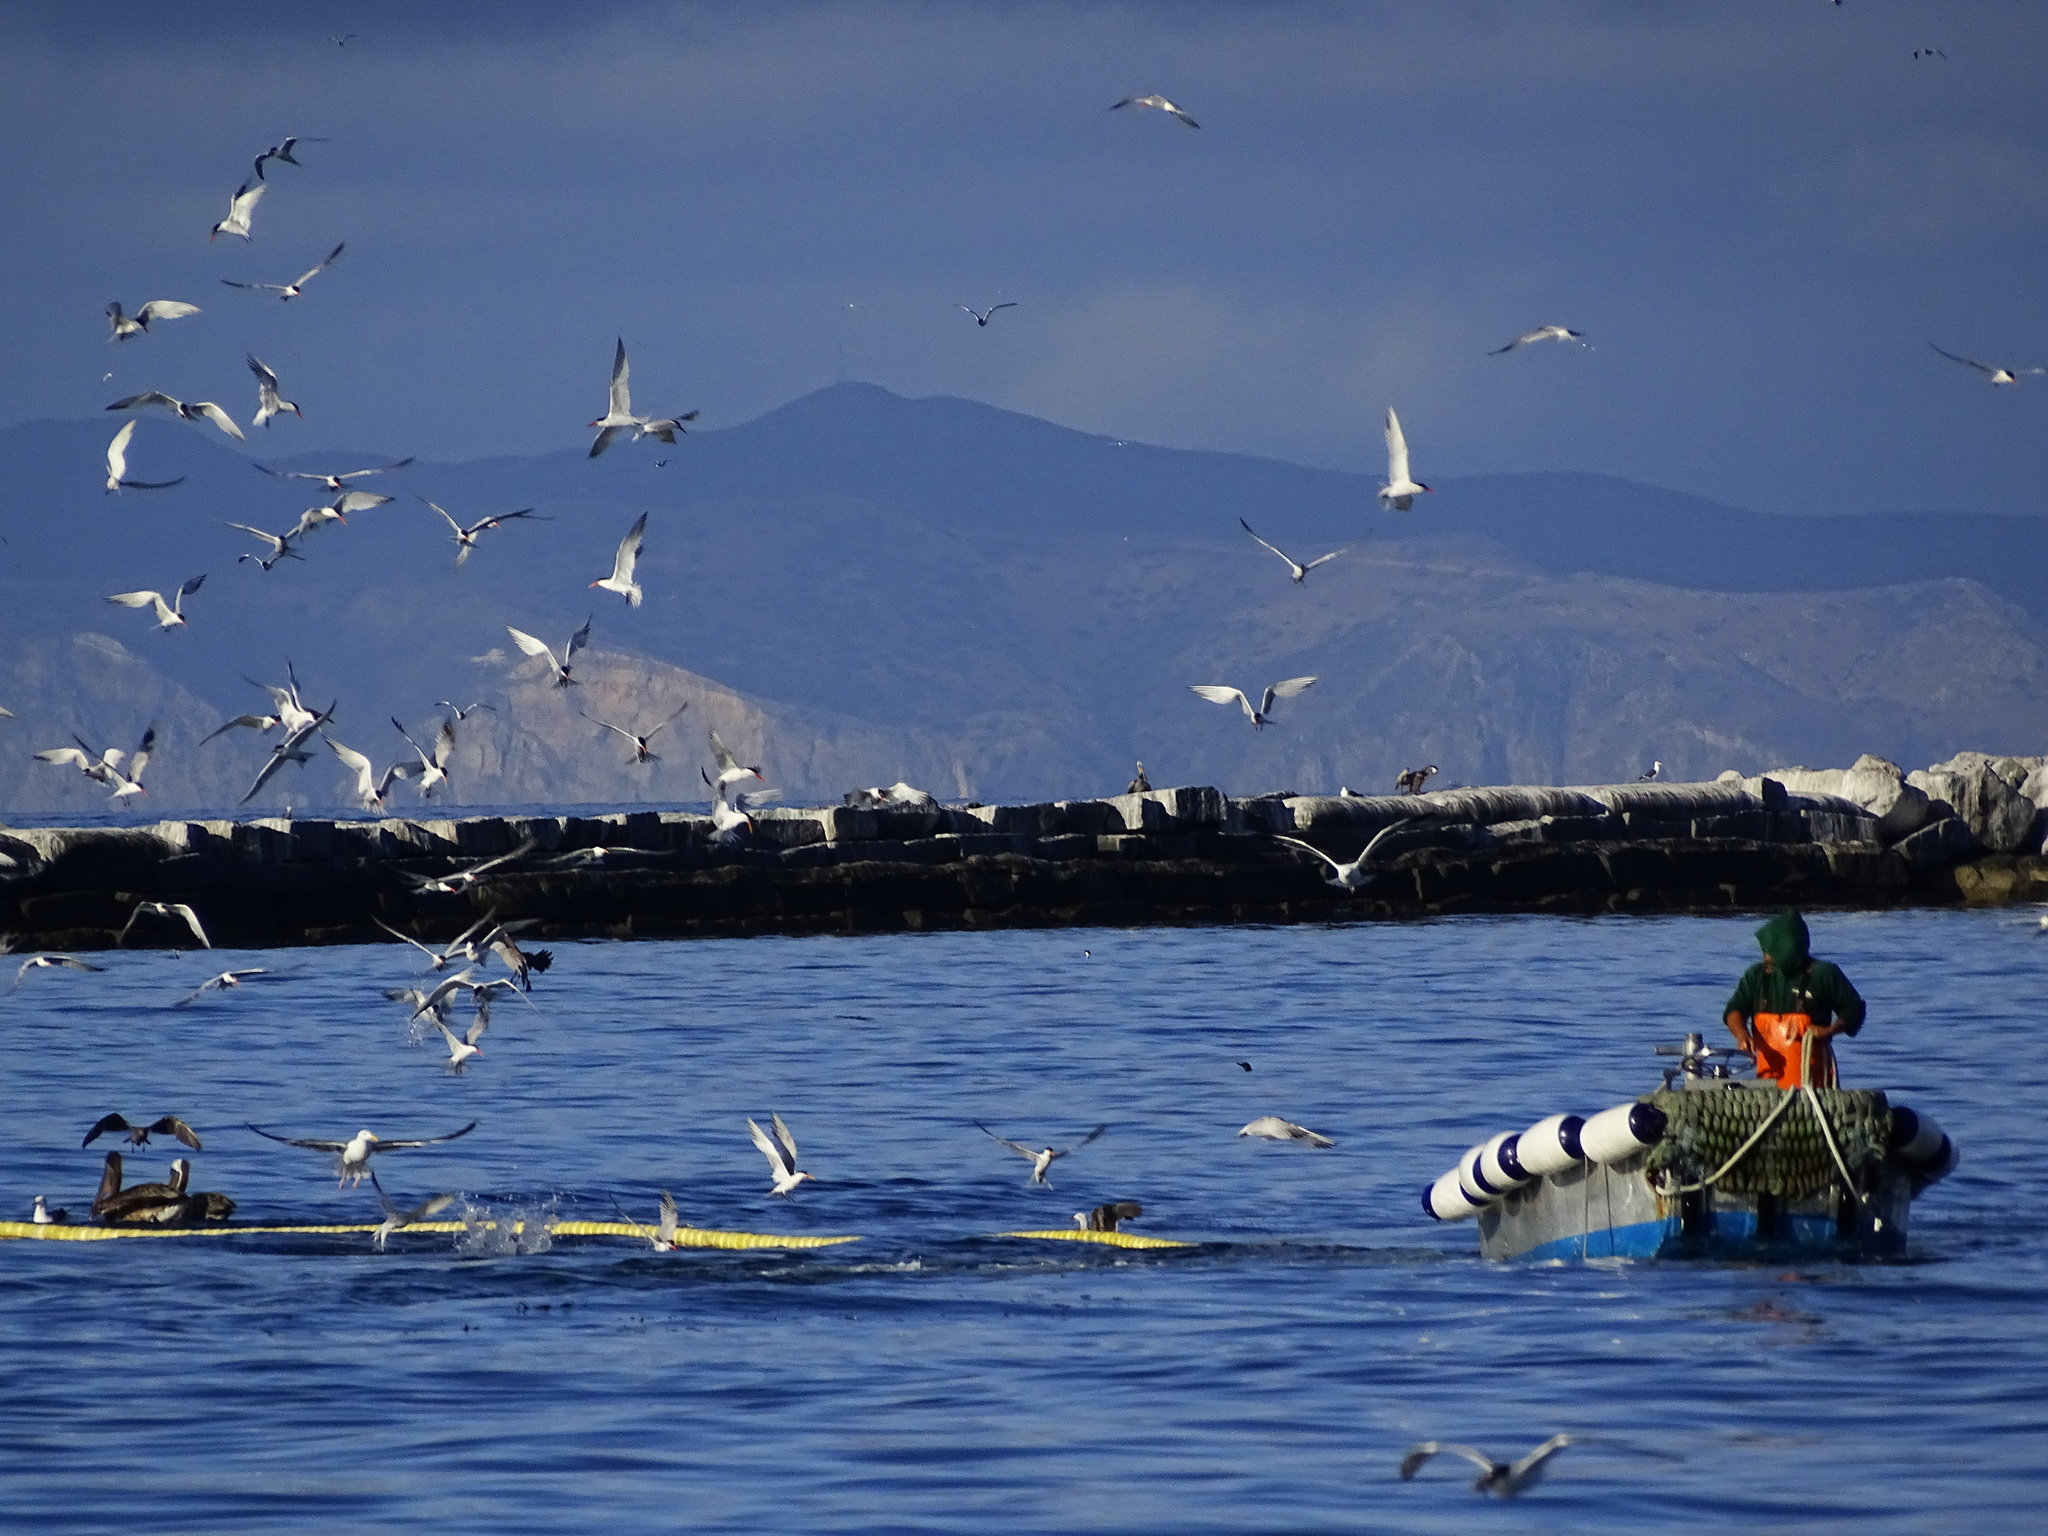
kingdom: Animalia
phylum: Chordata
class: Aves
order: Charadriiformes
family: Laridae
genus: Thalasseus
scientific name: Thalasseus elegans
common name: Elegant tern
